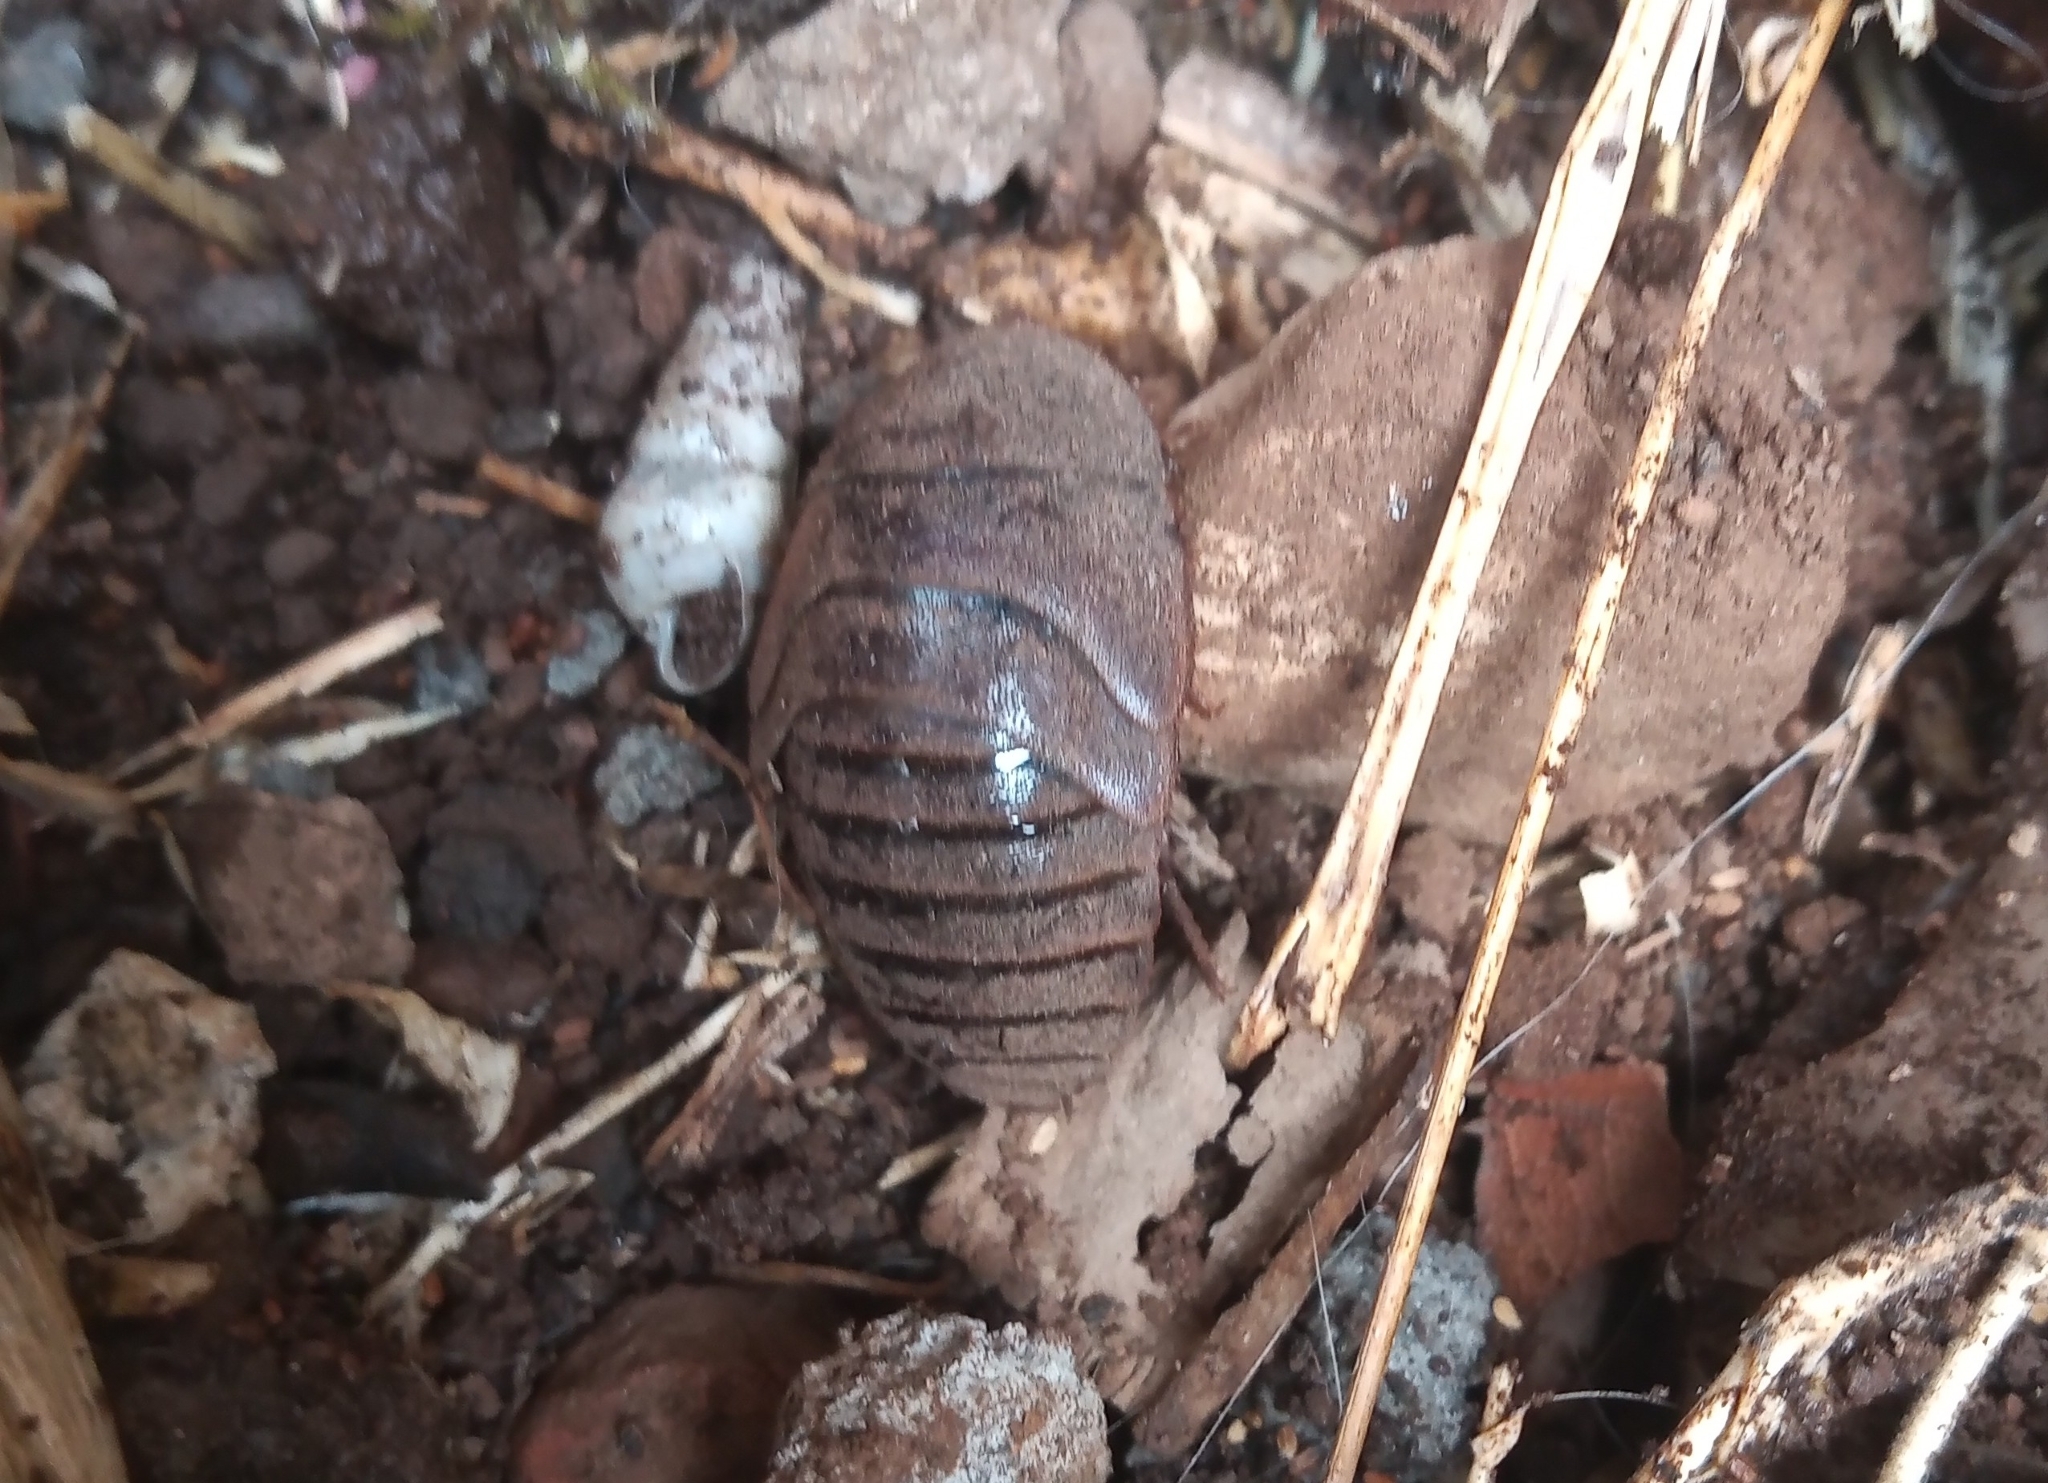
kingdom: Animalia
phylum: Arthropoda
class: Insecta
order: Blattodea
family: Corydiidae
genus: Homoeogamia
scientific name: Homoeogamia mexicana
